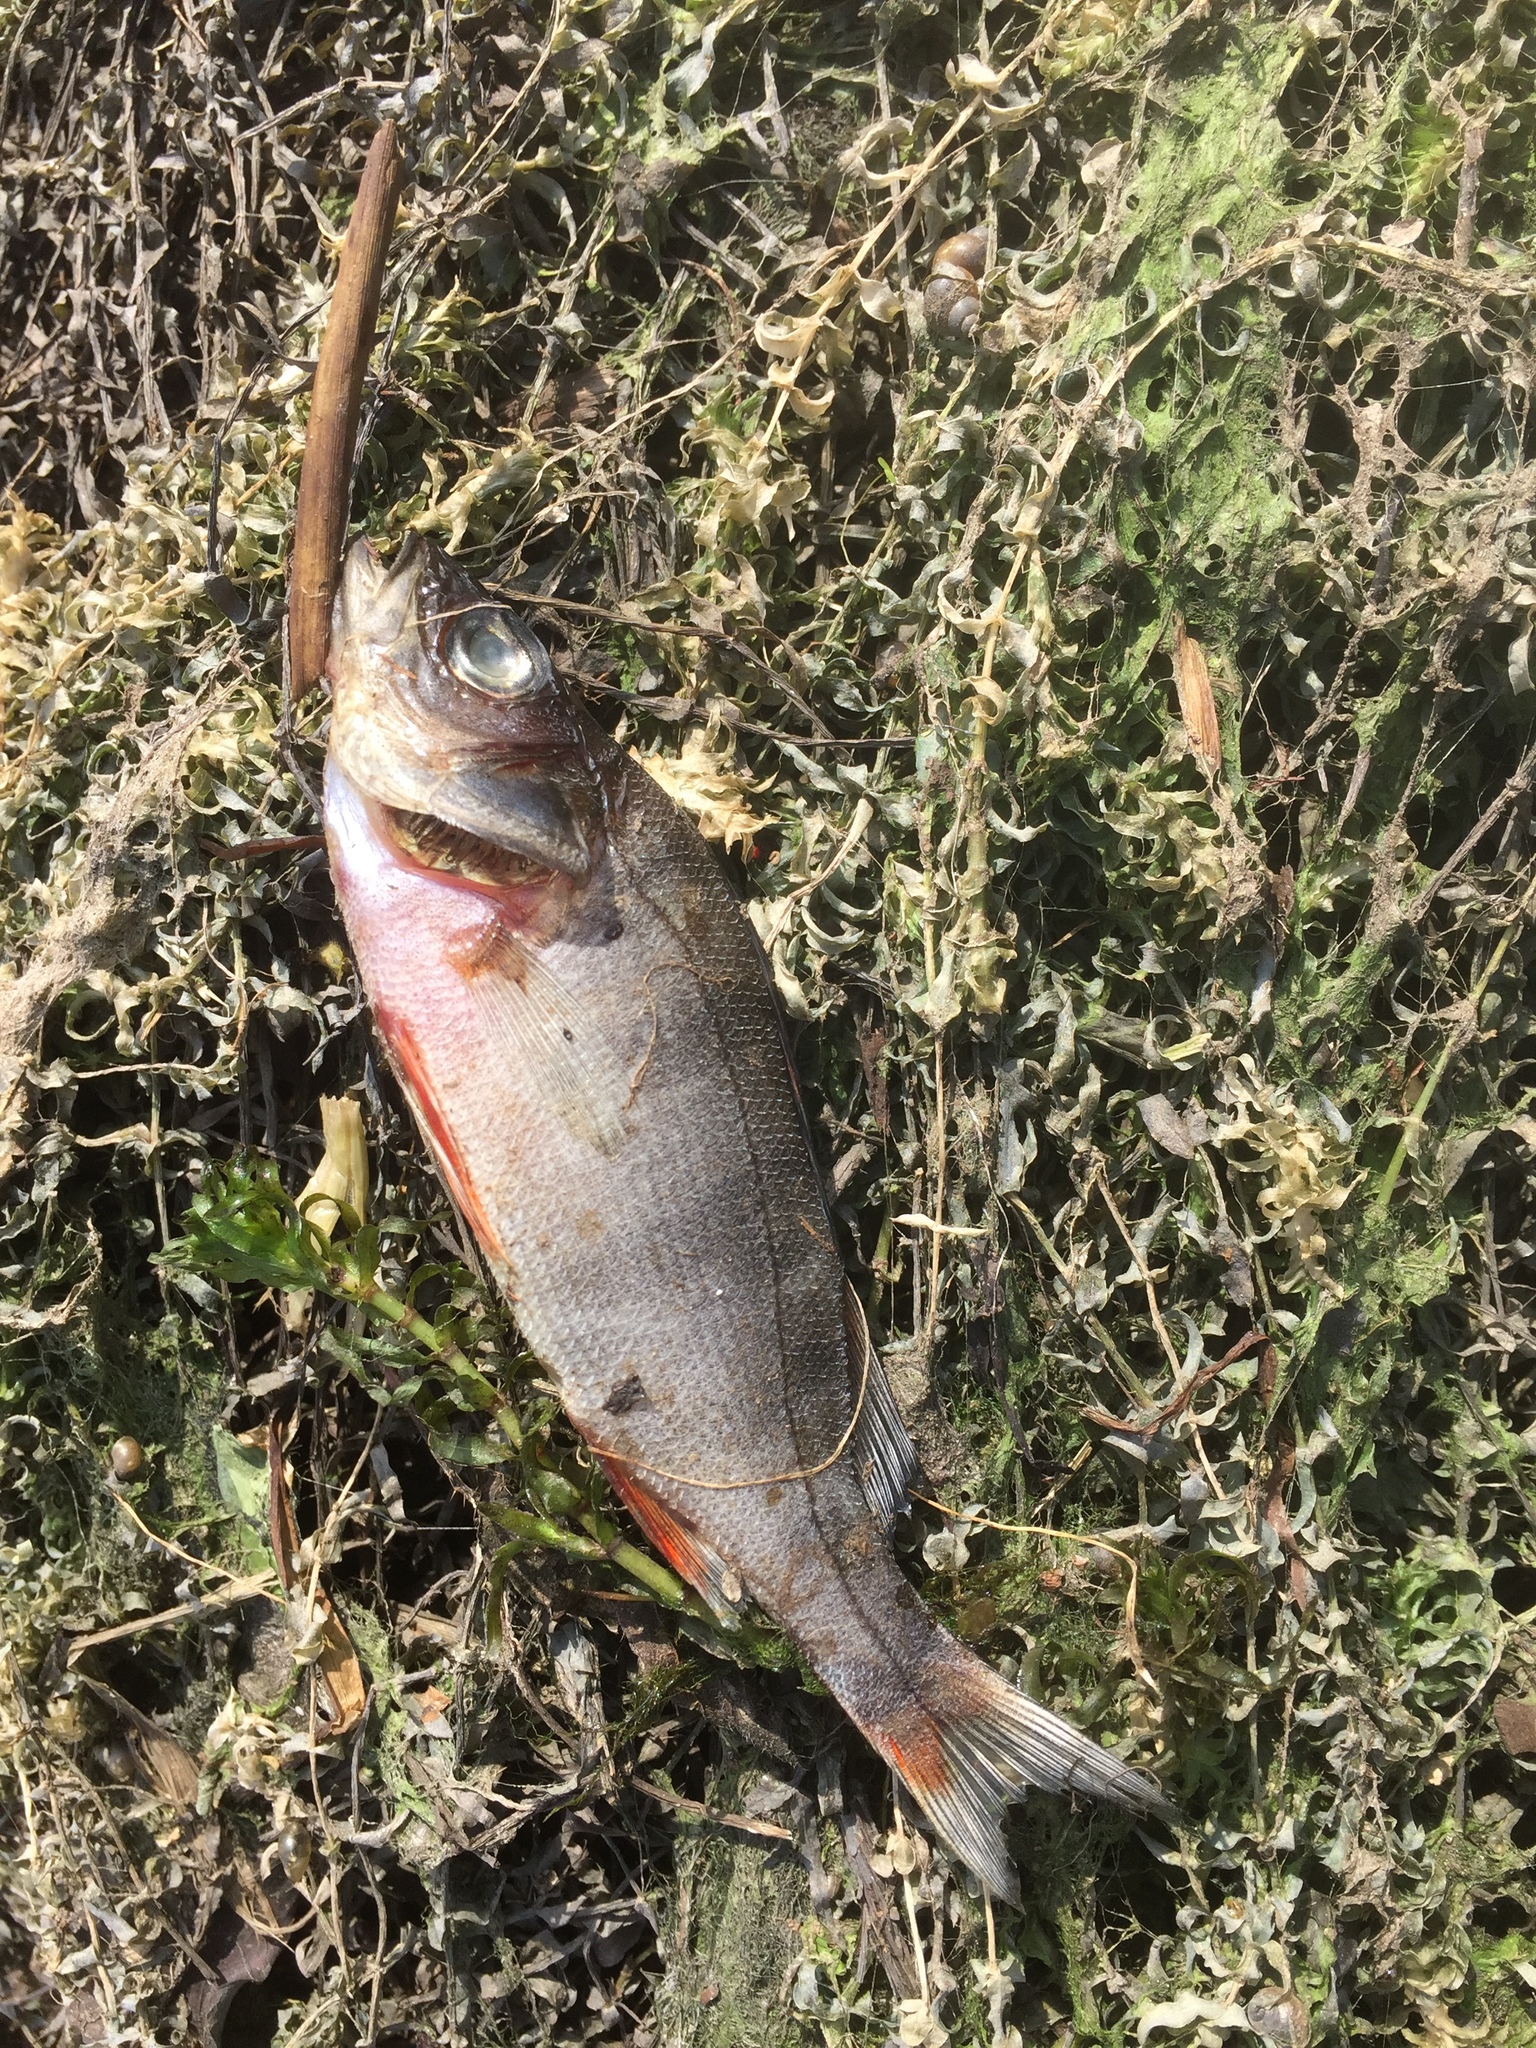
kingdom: Animalia
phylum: Chordata
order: Perciformes
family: Percidae
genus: Perca
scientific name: Perca fluviatilis
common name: Perch
